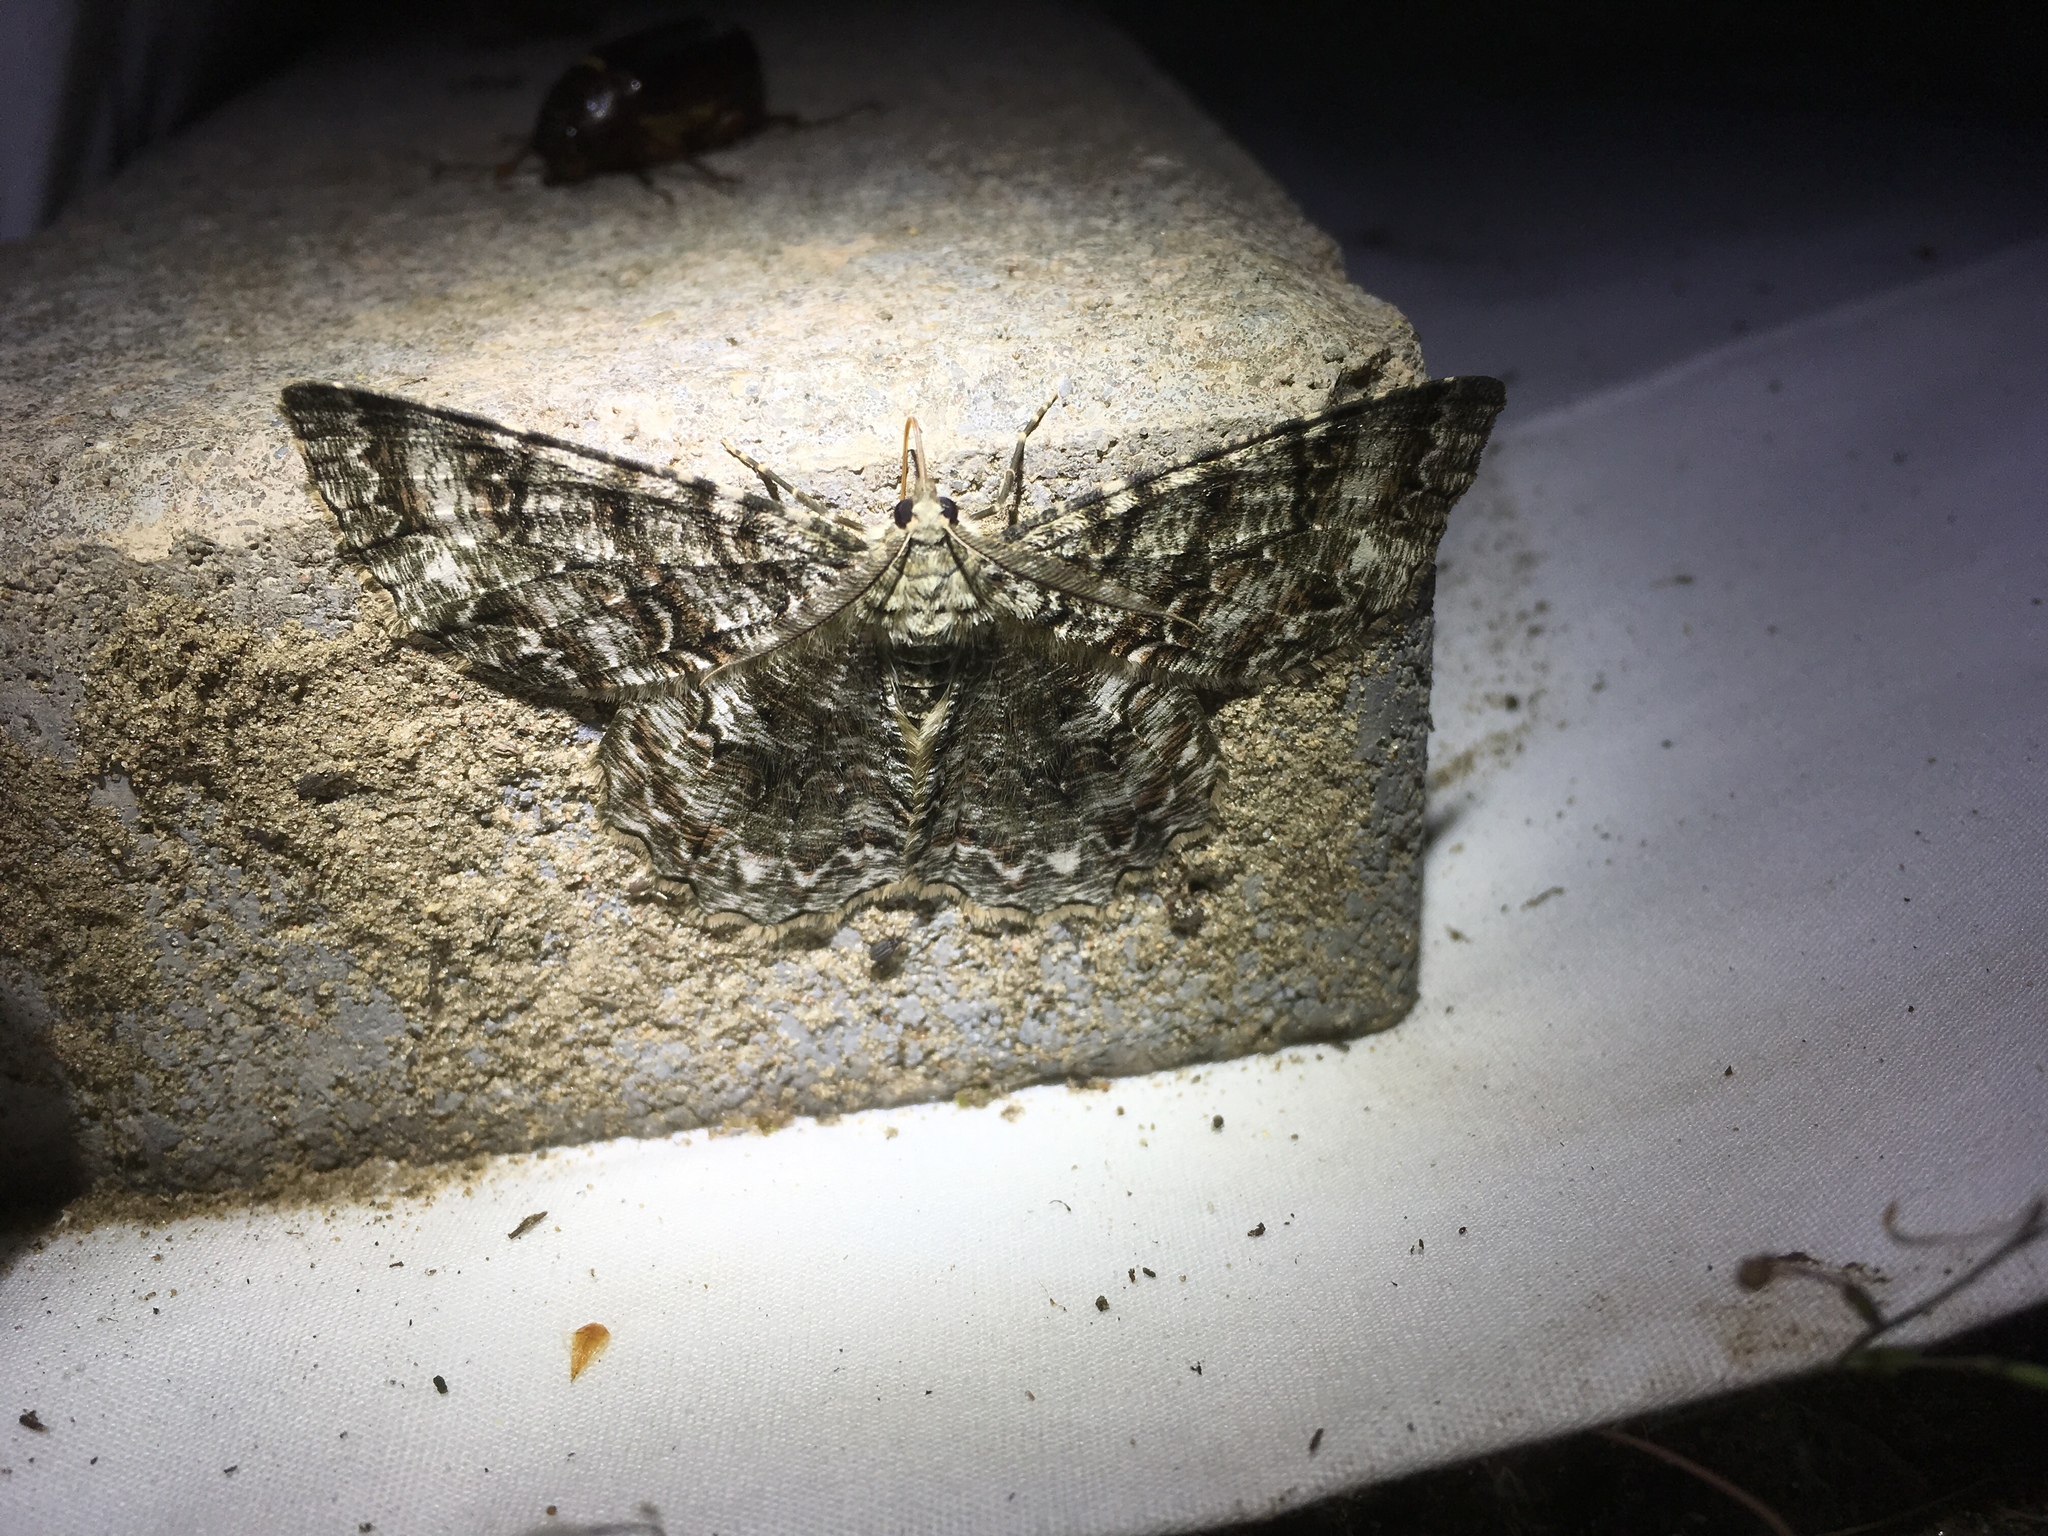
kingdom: Animalia
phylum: Arthropoda
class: Insecta
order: Lepidoptera
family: Geometridae
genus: Epimecis
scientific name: Epimecis hortaria
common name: Tulip-tree beauty
